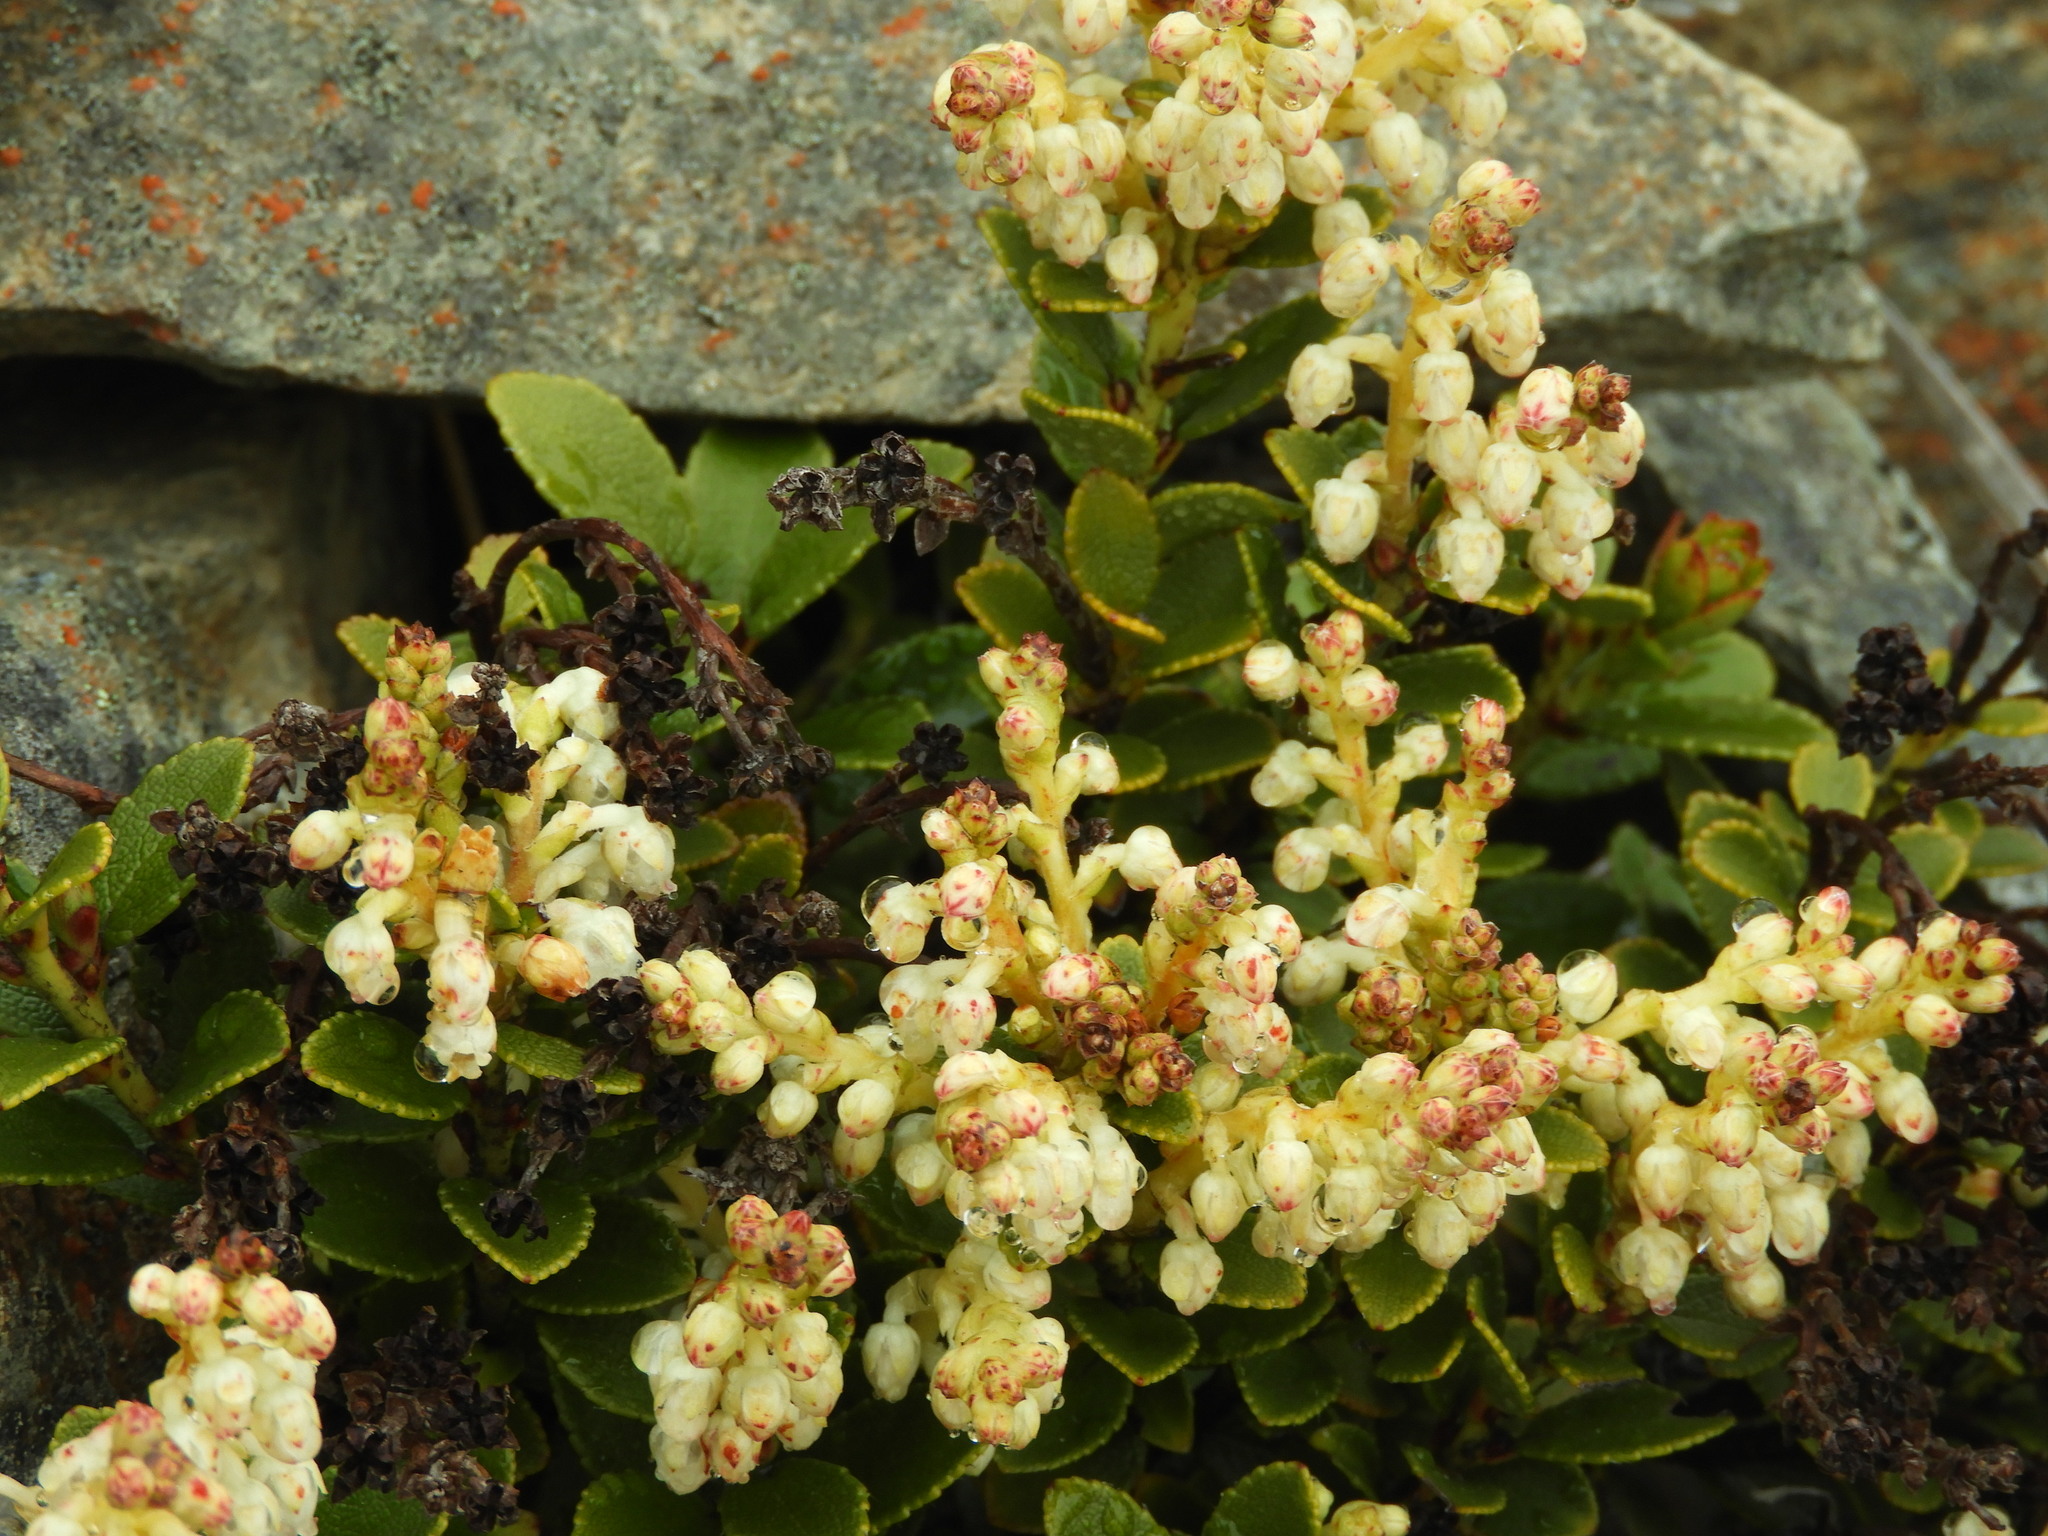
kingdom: Plantae
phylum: Tracheophyta
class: Magnoliopsida
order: Ericales
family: Ericaceae
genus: Gaultheria
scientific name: Gaultheria crassa
